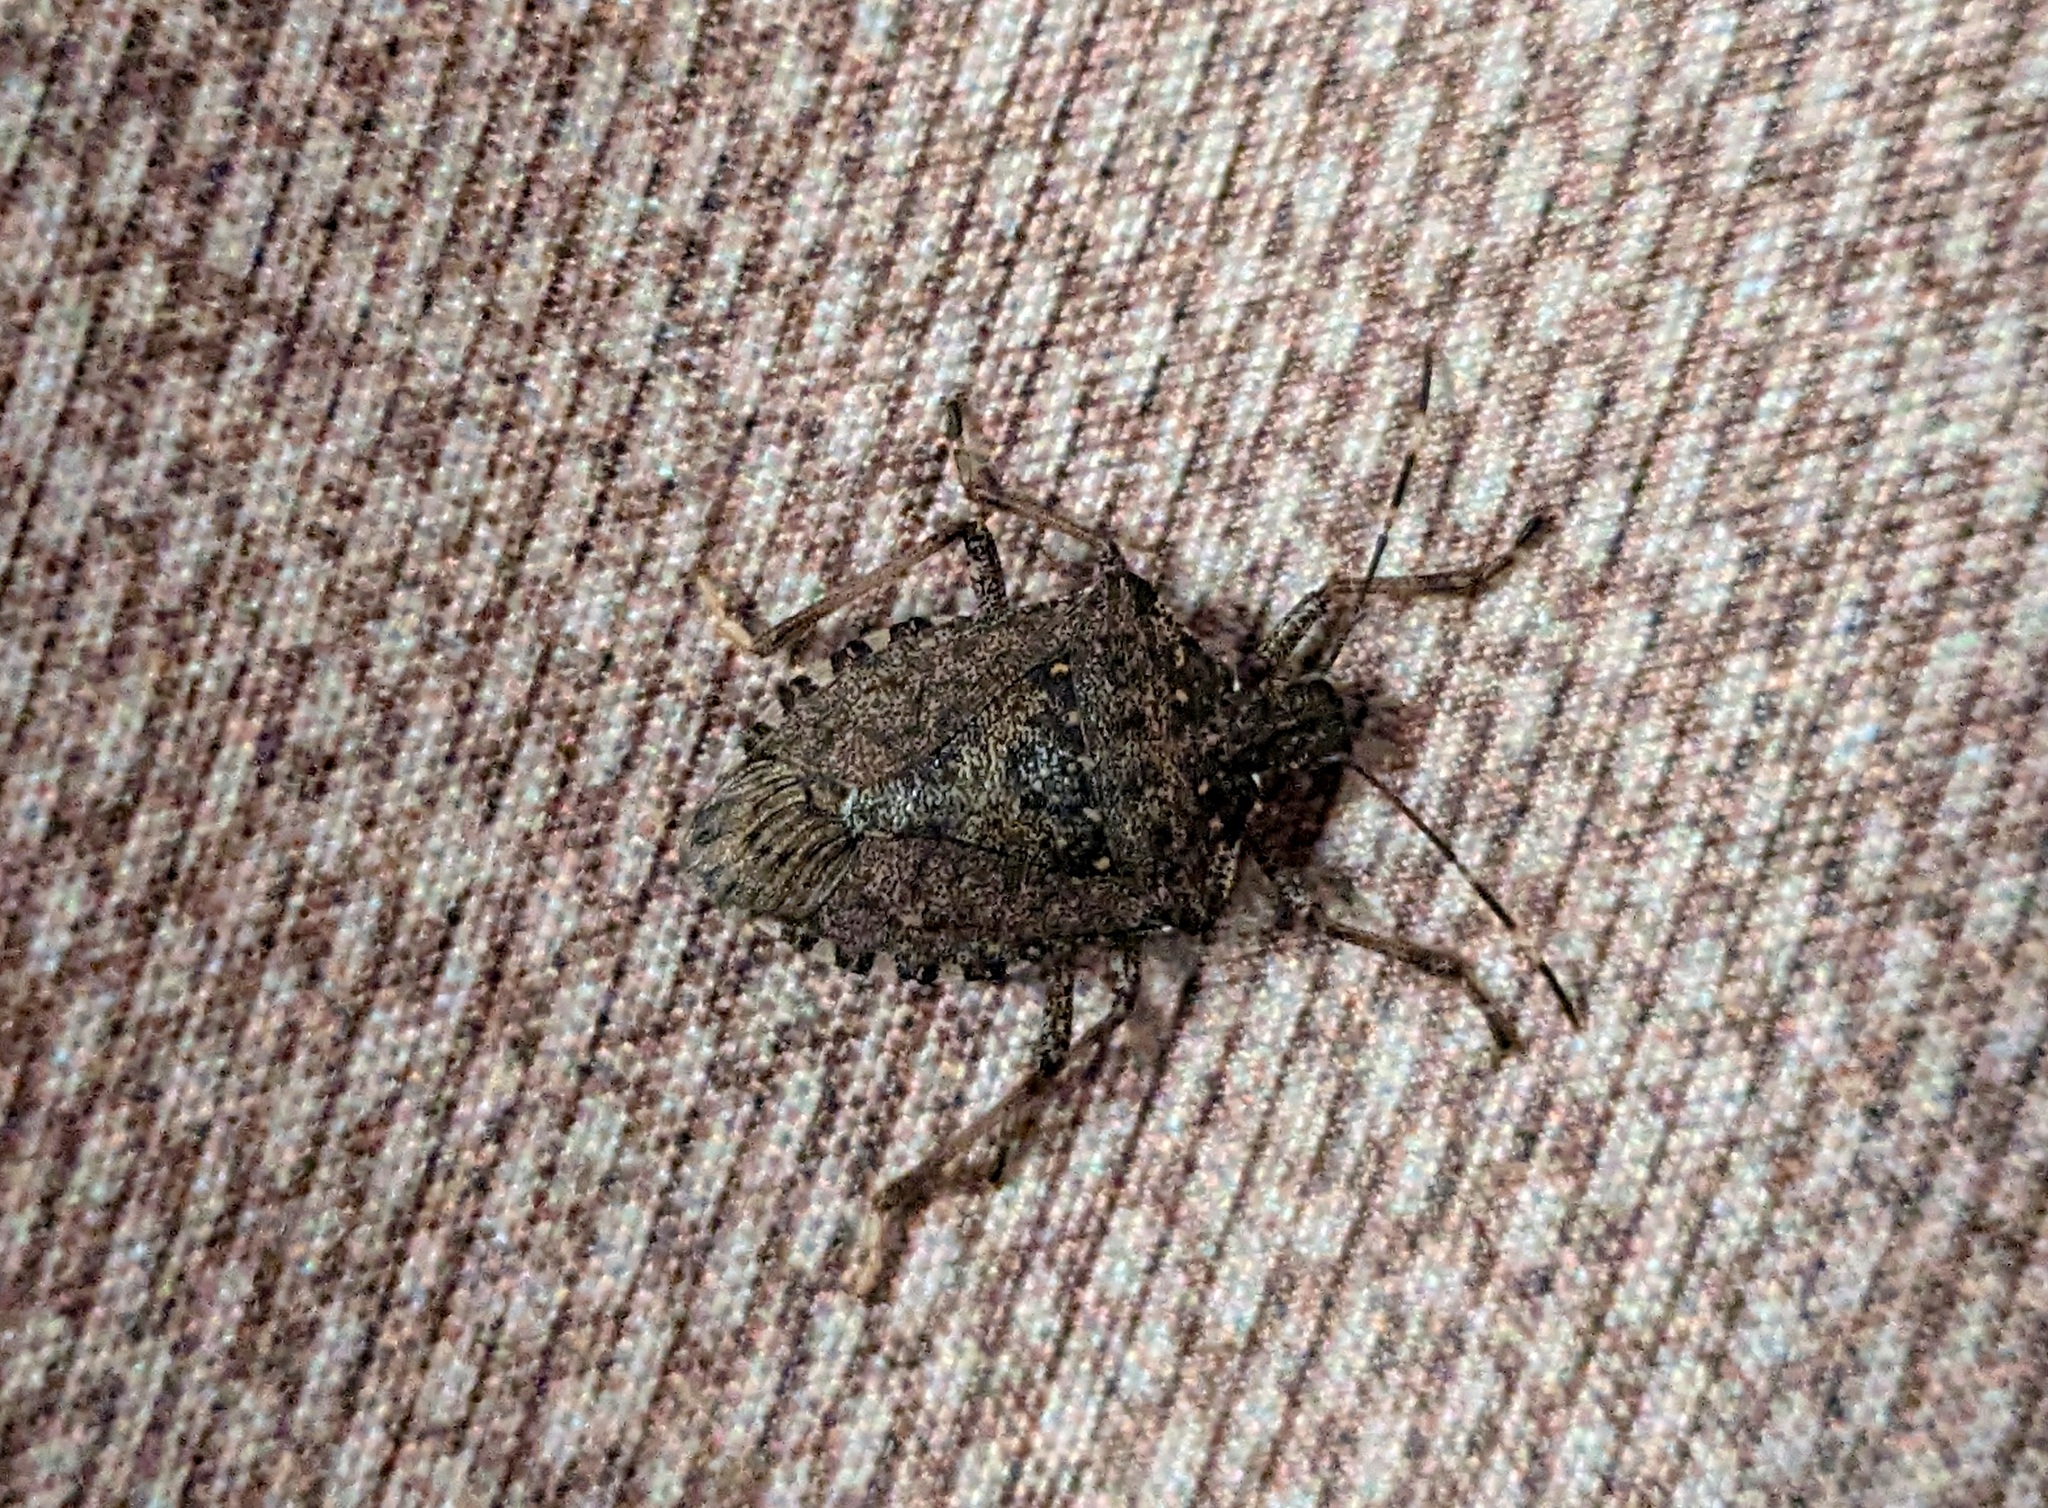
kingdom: Animalia
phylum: Arthropoda
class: Insecta
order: Hemiptera
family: Pentatomidae
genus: Halyomorpha
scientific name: Halyomorpha halys
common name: Brown marmorated stink bug
